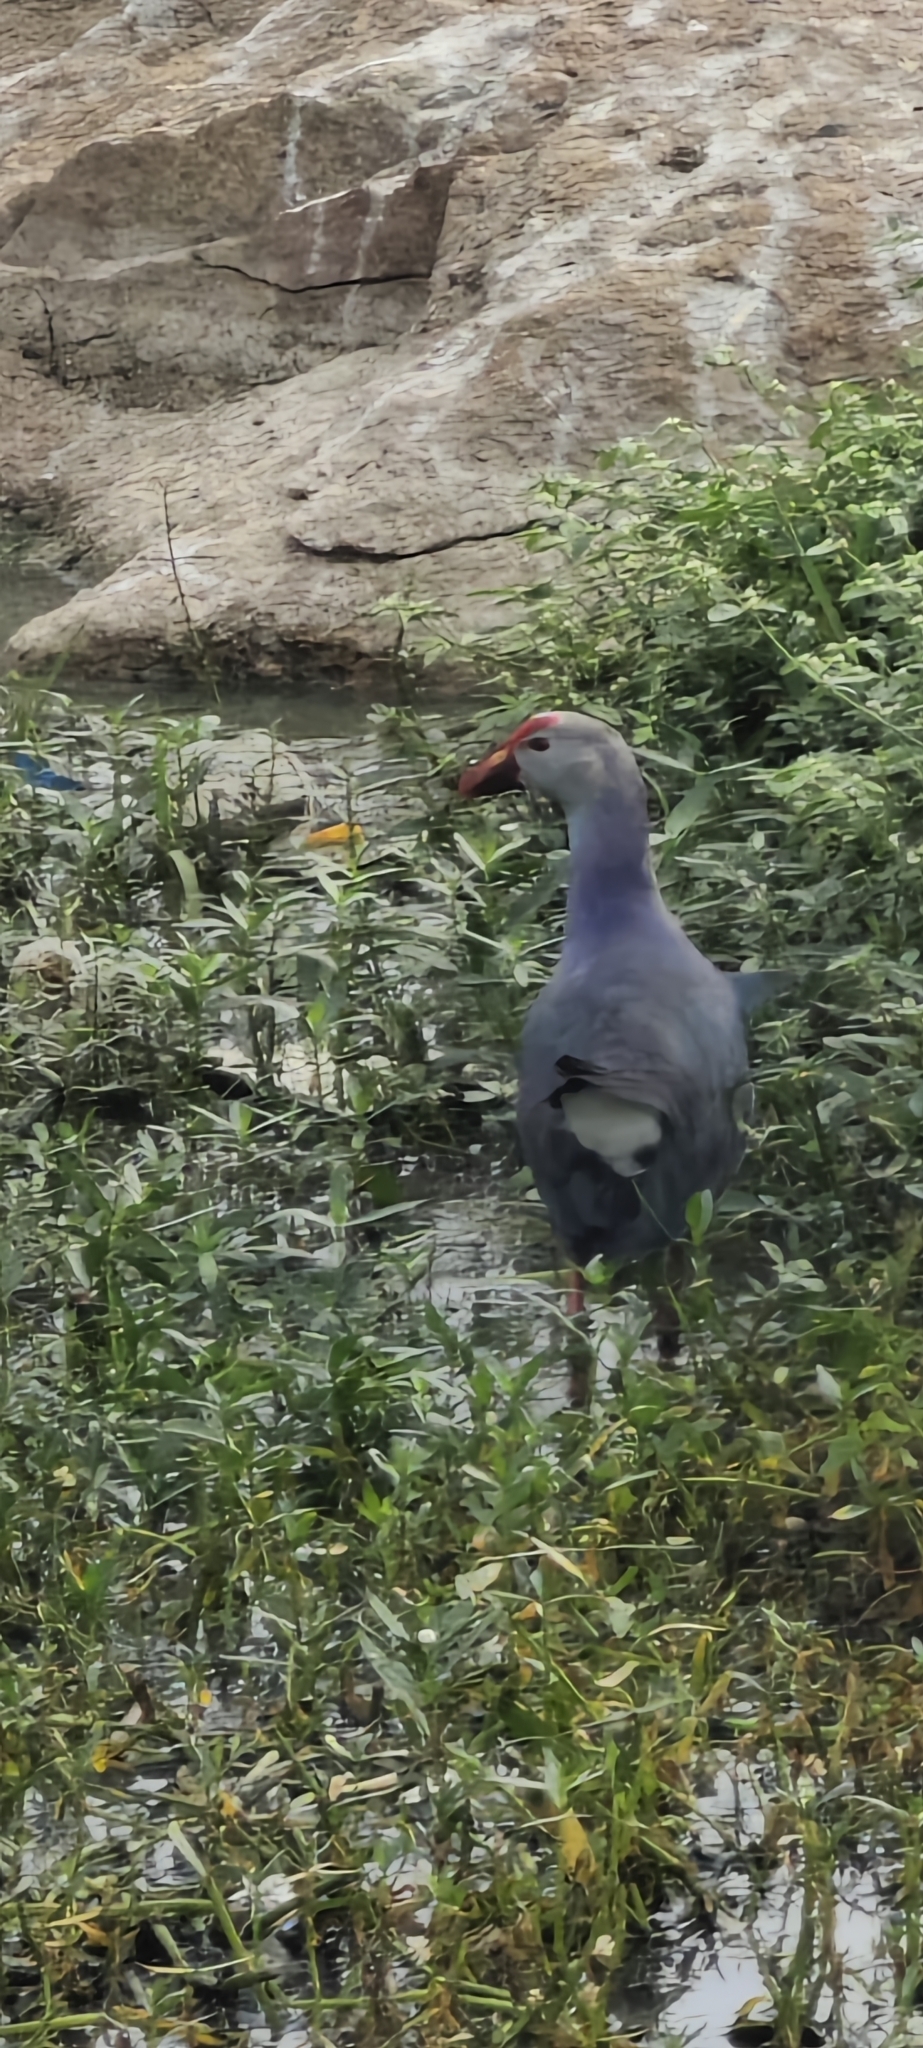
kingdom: Animalia
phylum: Chordata
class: Aves
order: Gruiformes
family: Rallidae
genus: Porphyrio
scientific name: Porphyrio porphyrio
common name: Purple swamphen
